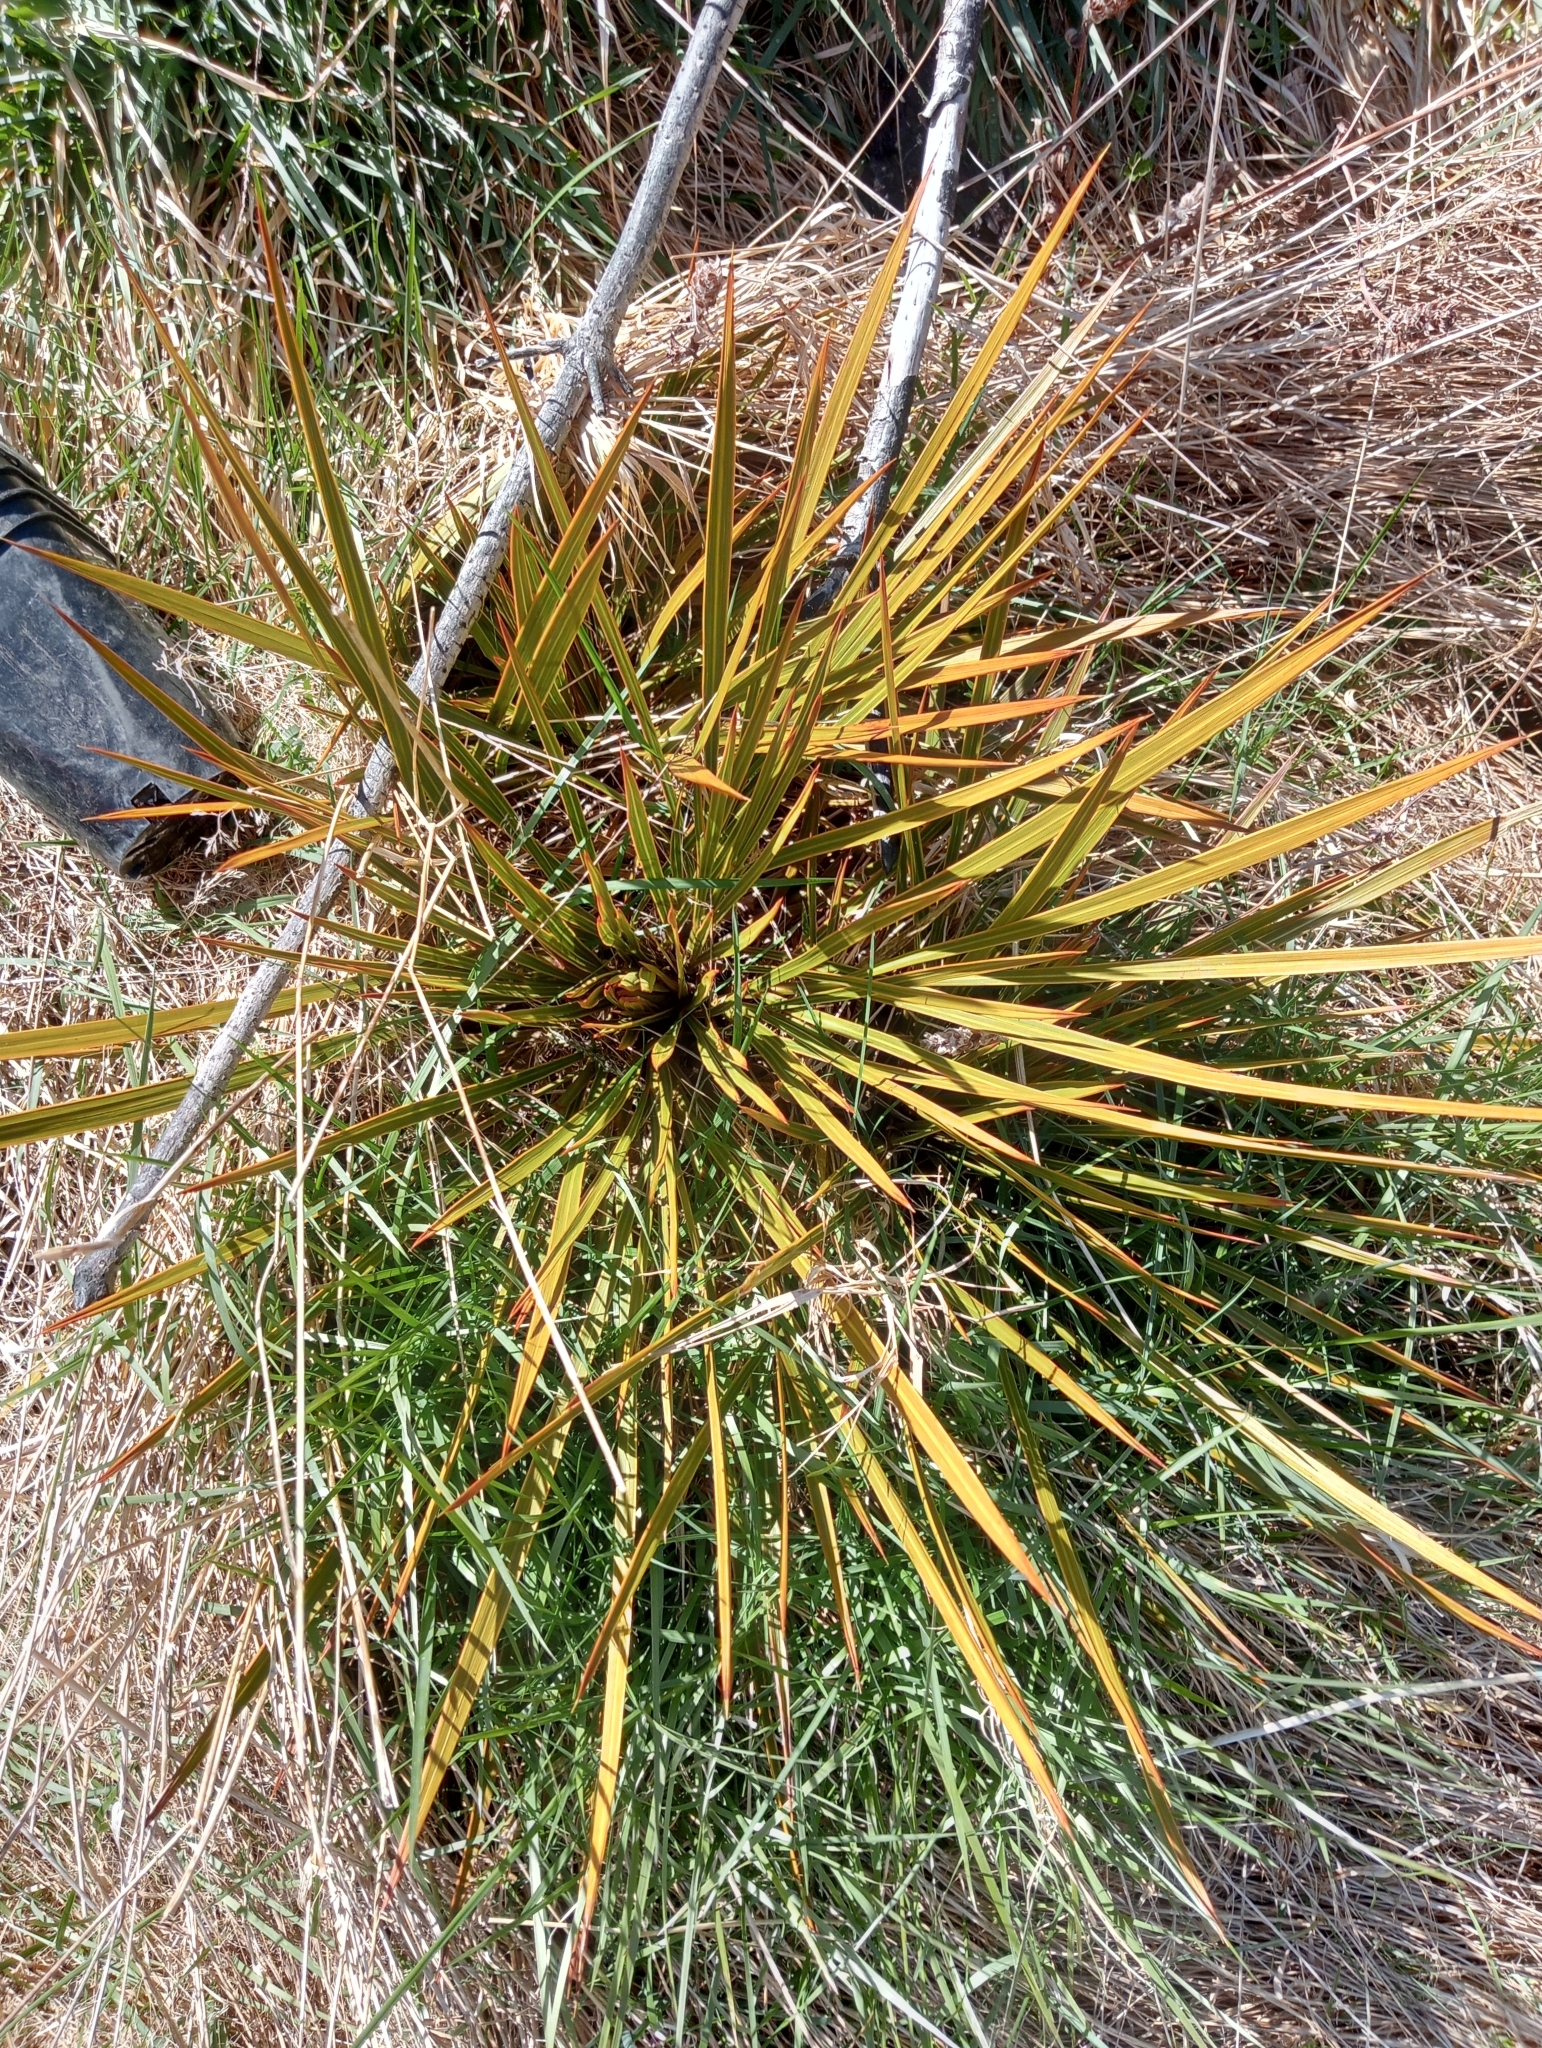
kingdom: Plantae
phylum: Tracheophyta
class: Magnoliopsida
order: Apiales
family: Apiaceae
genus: Aciphylla
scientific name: Aciphylla aurea
